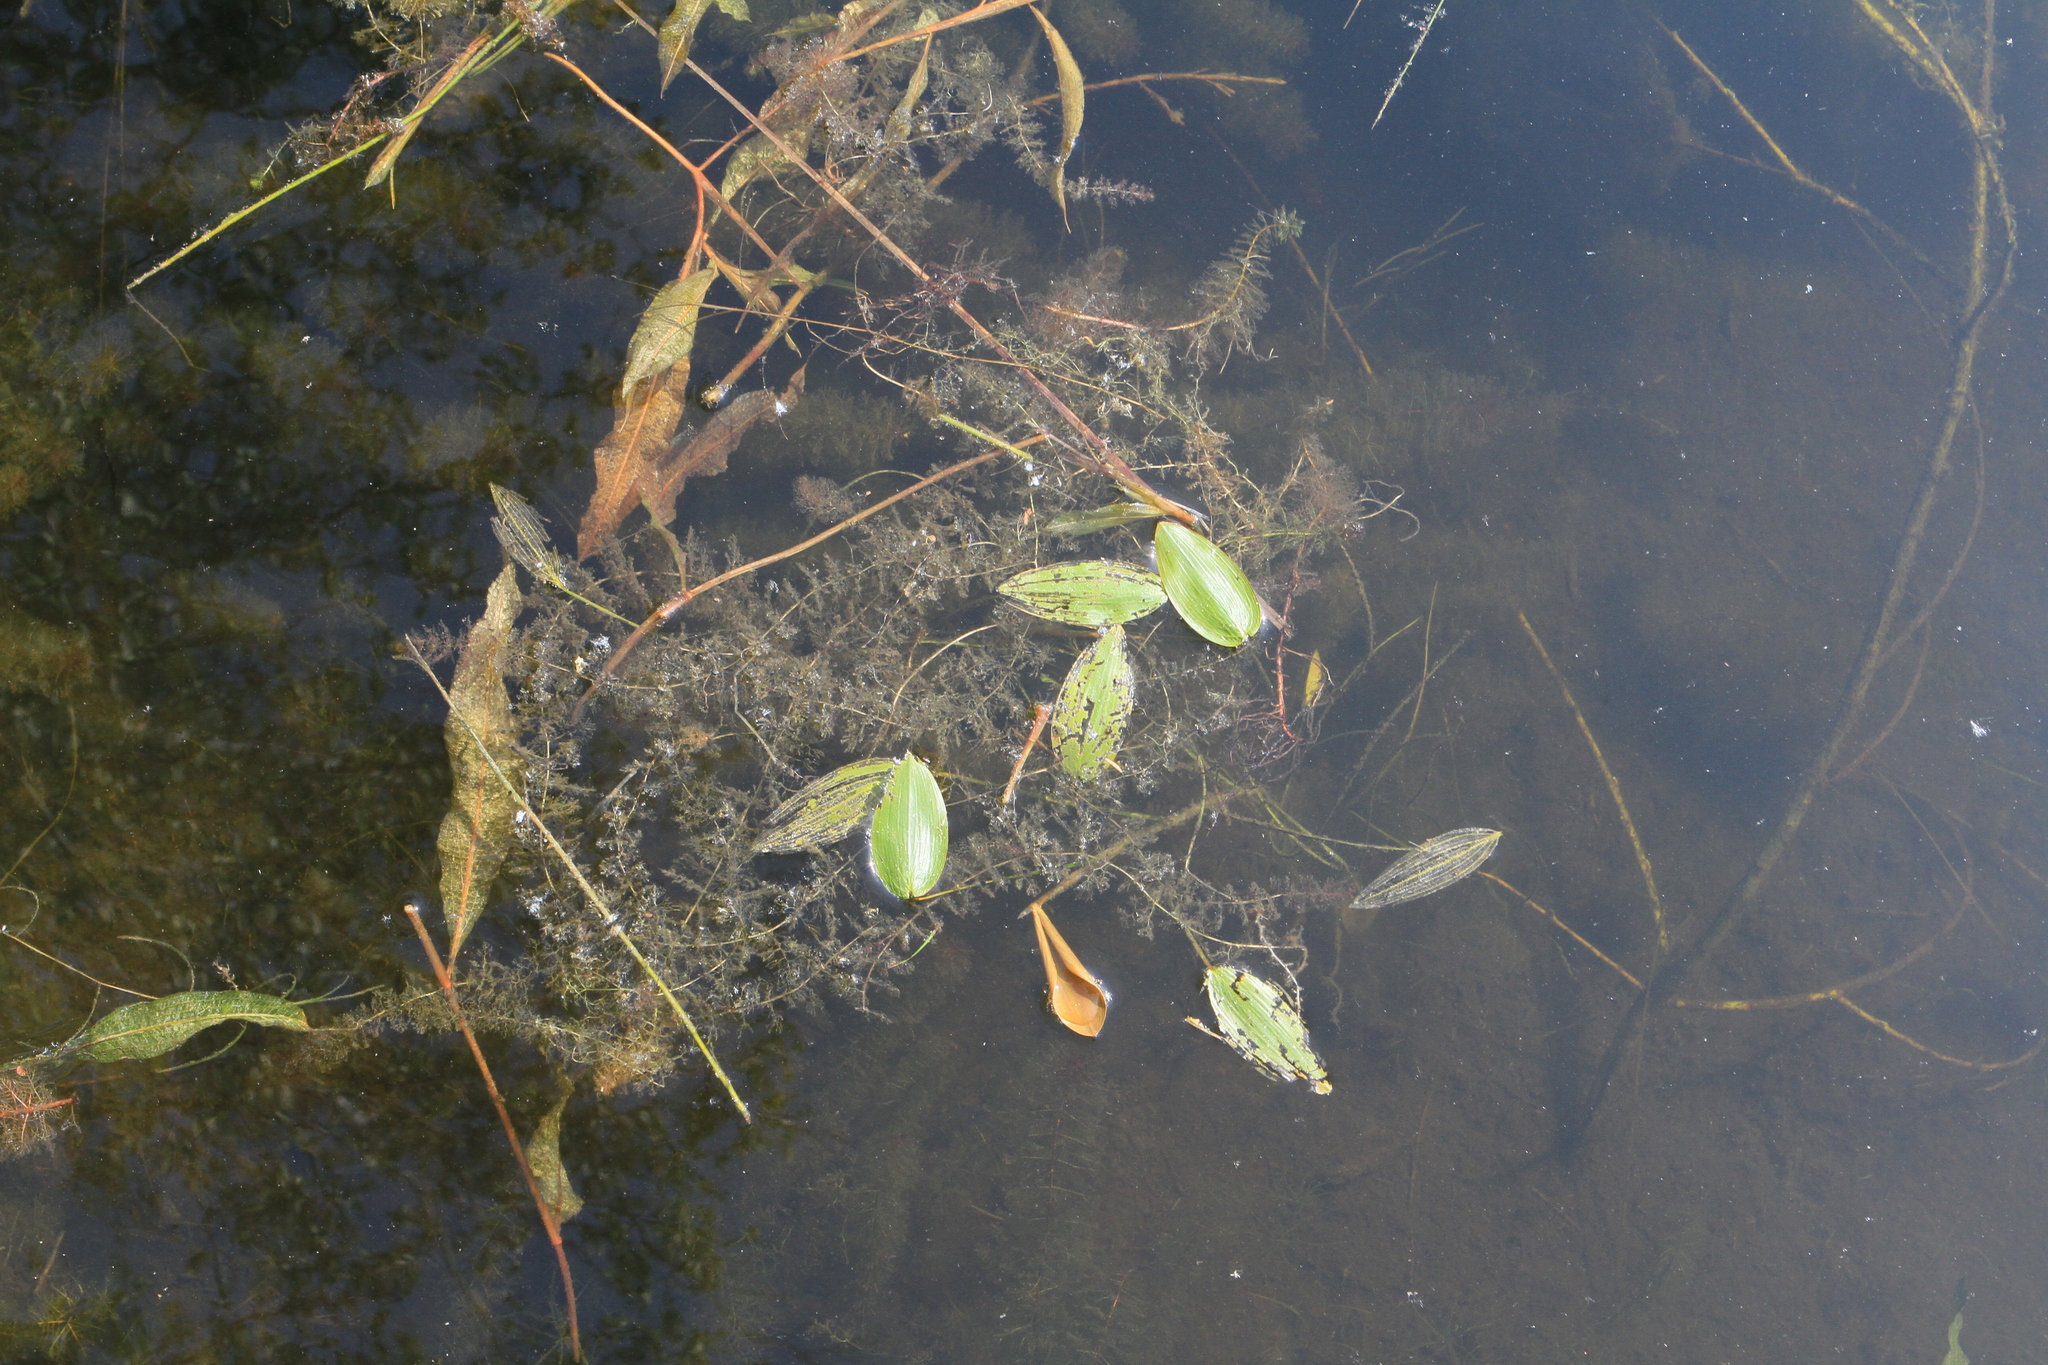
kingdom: Plantae
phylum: Tracheophyta
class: Liliopsida
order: Alismatales
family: Potamogetonaceae
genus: Potamogeton
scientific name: Potamogeton natans
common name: Broad-leaved pondweed
